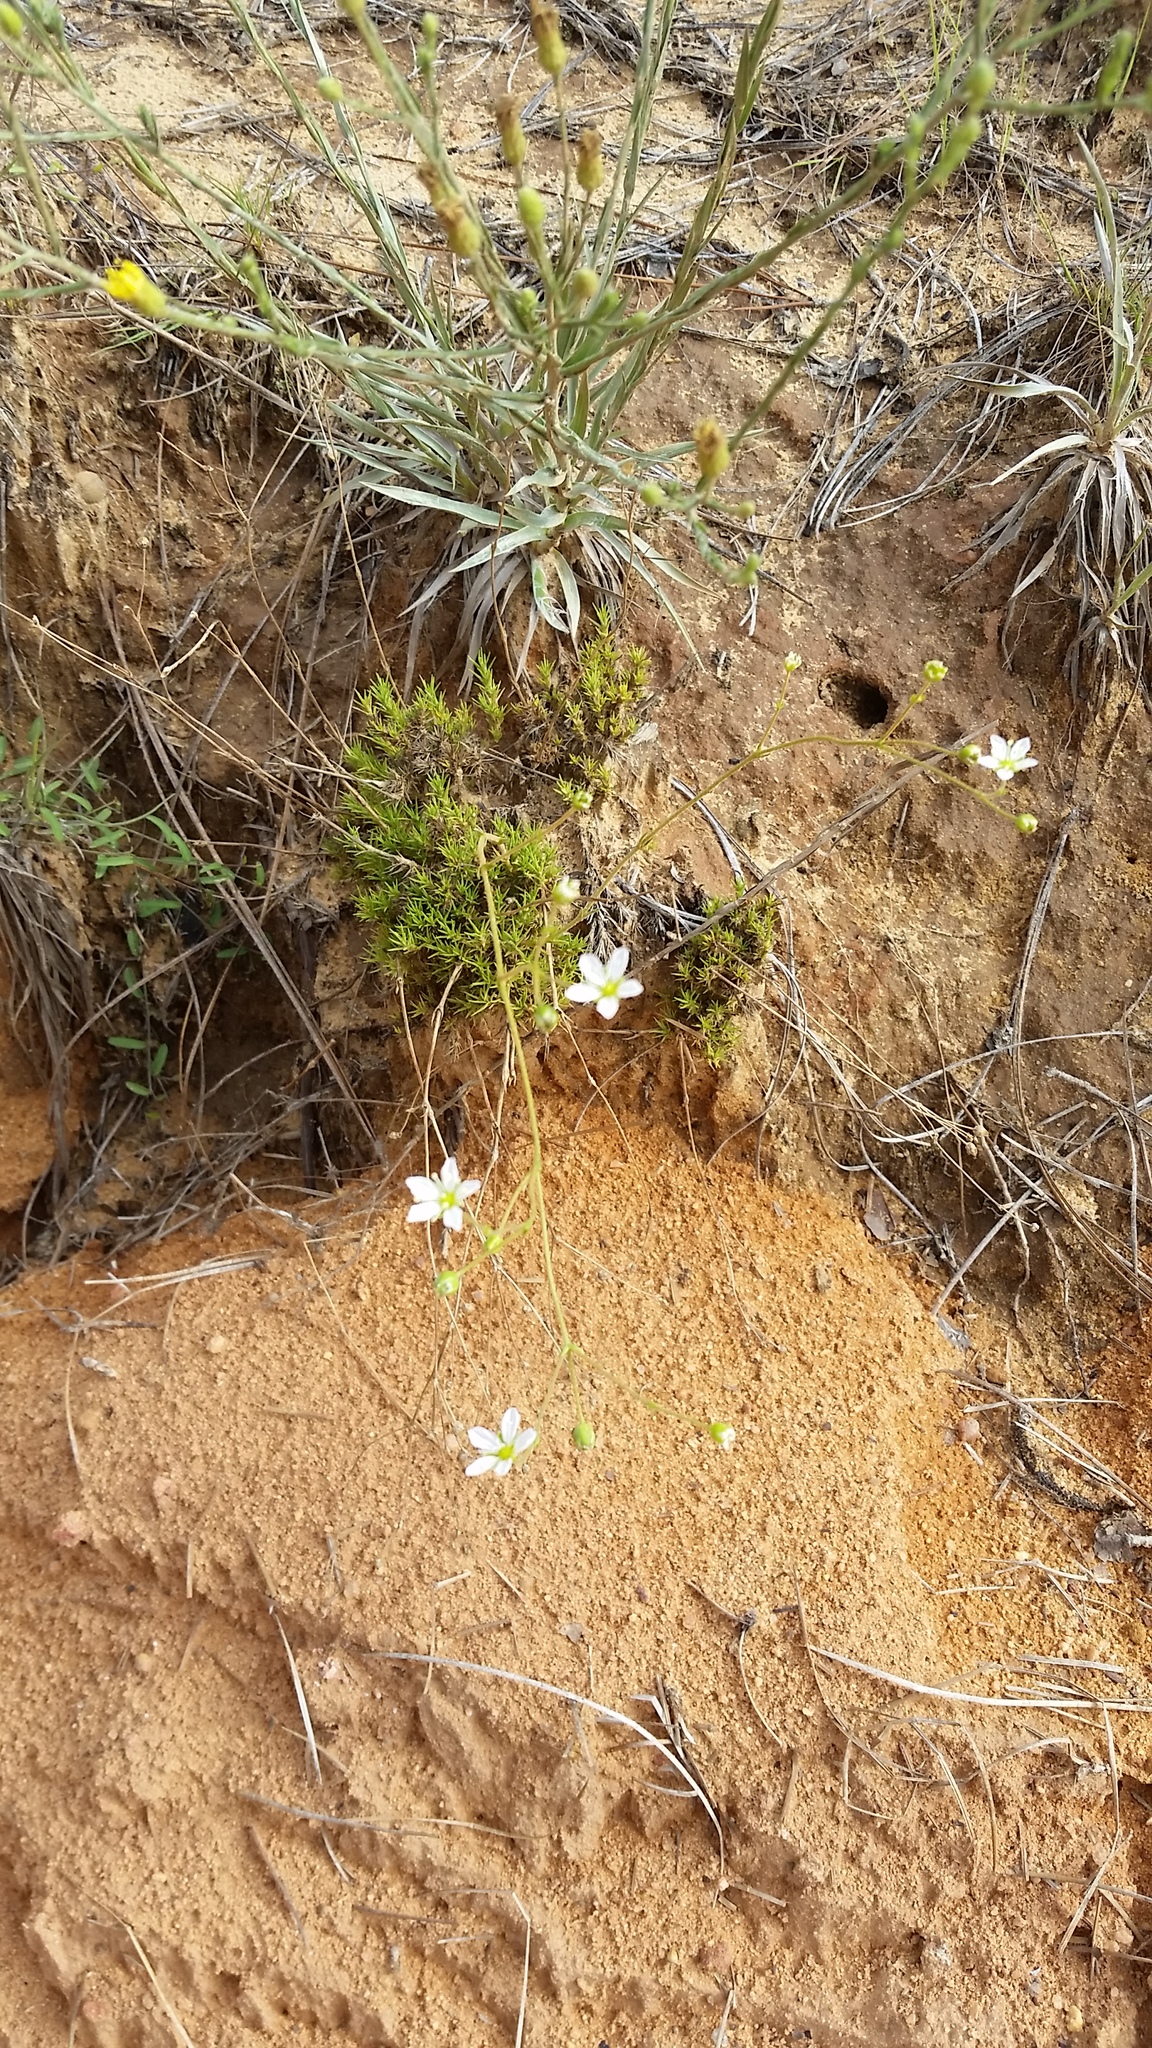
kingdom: Plantae
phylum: Tracheophyta
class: Magnoliopsida
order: Caryophyllales
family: Caryophyllaceae
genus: Geocarpon
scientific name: Geocarpon carolinianum
